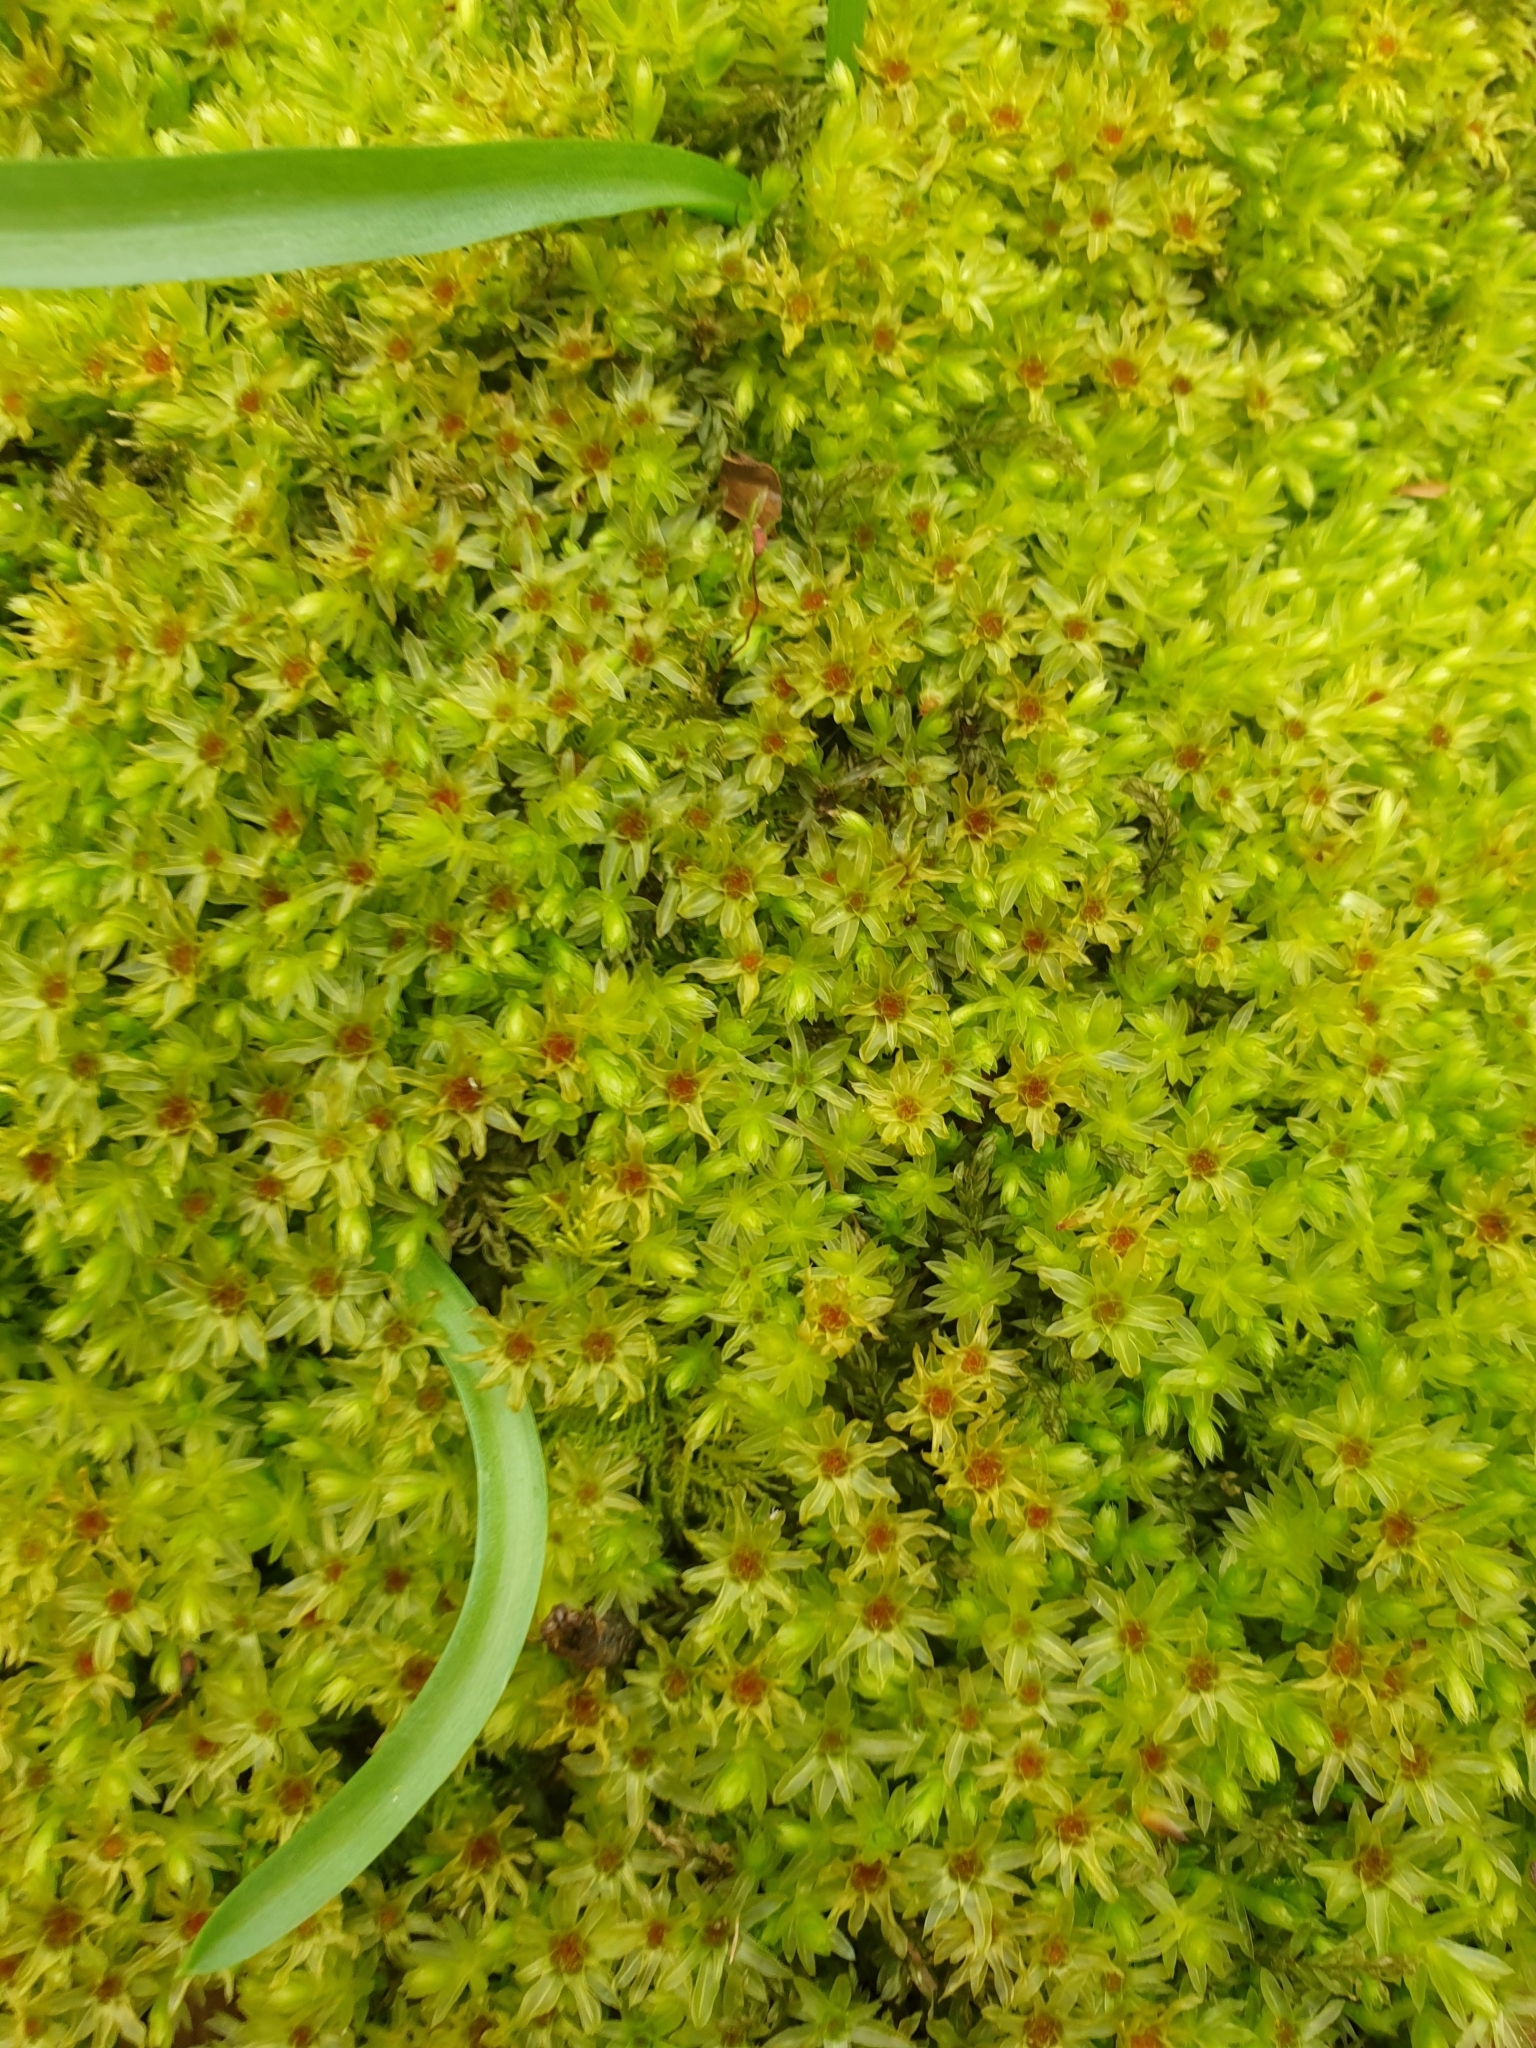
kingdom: Plantae
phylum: Bryophyta
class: Bryopsida
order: Bryales
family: Mniaceae
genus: Mnium
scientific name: Mnium hornum
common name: Swan's-neck leafy moss
